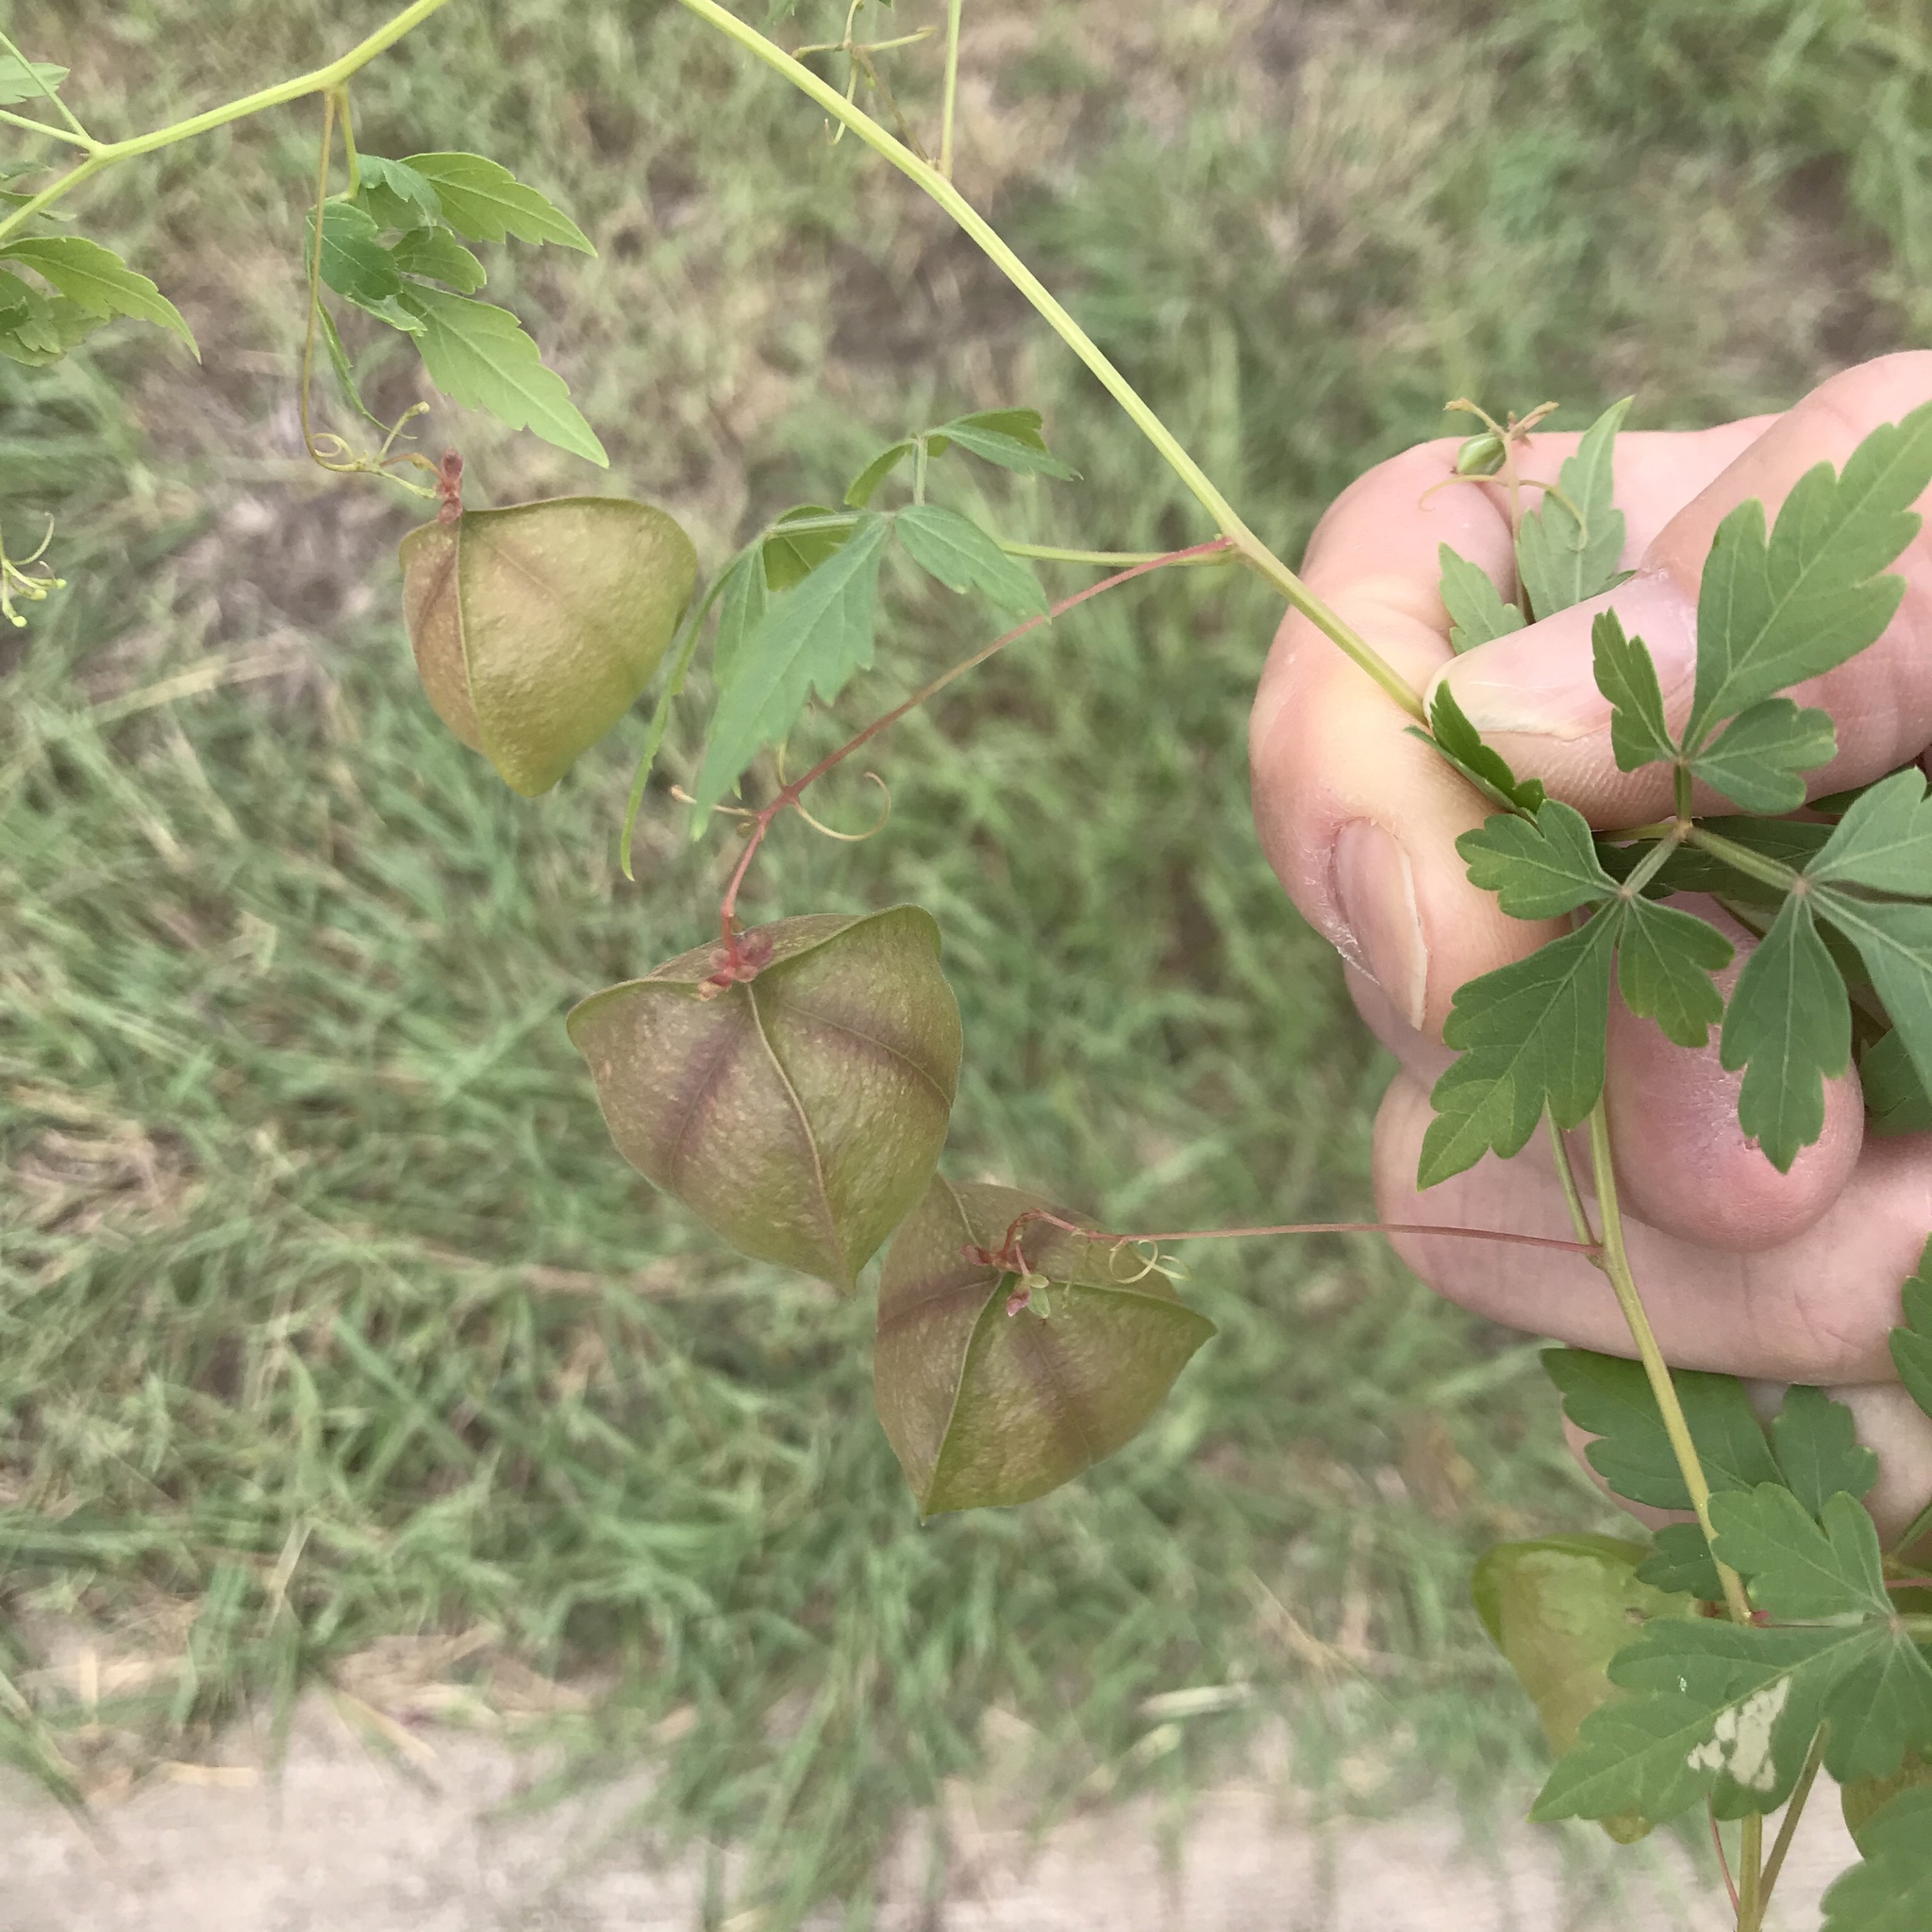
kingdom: Plantae
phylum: Tracheophyta
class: Magnoliopsida
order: Sapindales
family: Sapindaceae
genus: Cardiospermum
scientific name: Cardiospermum halicacabum
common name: Balloon vine
